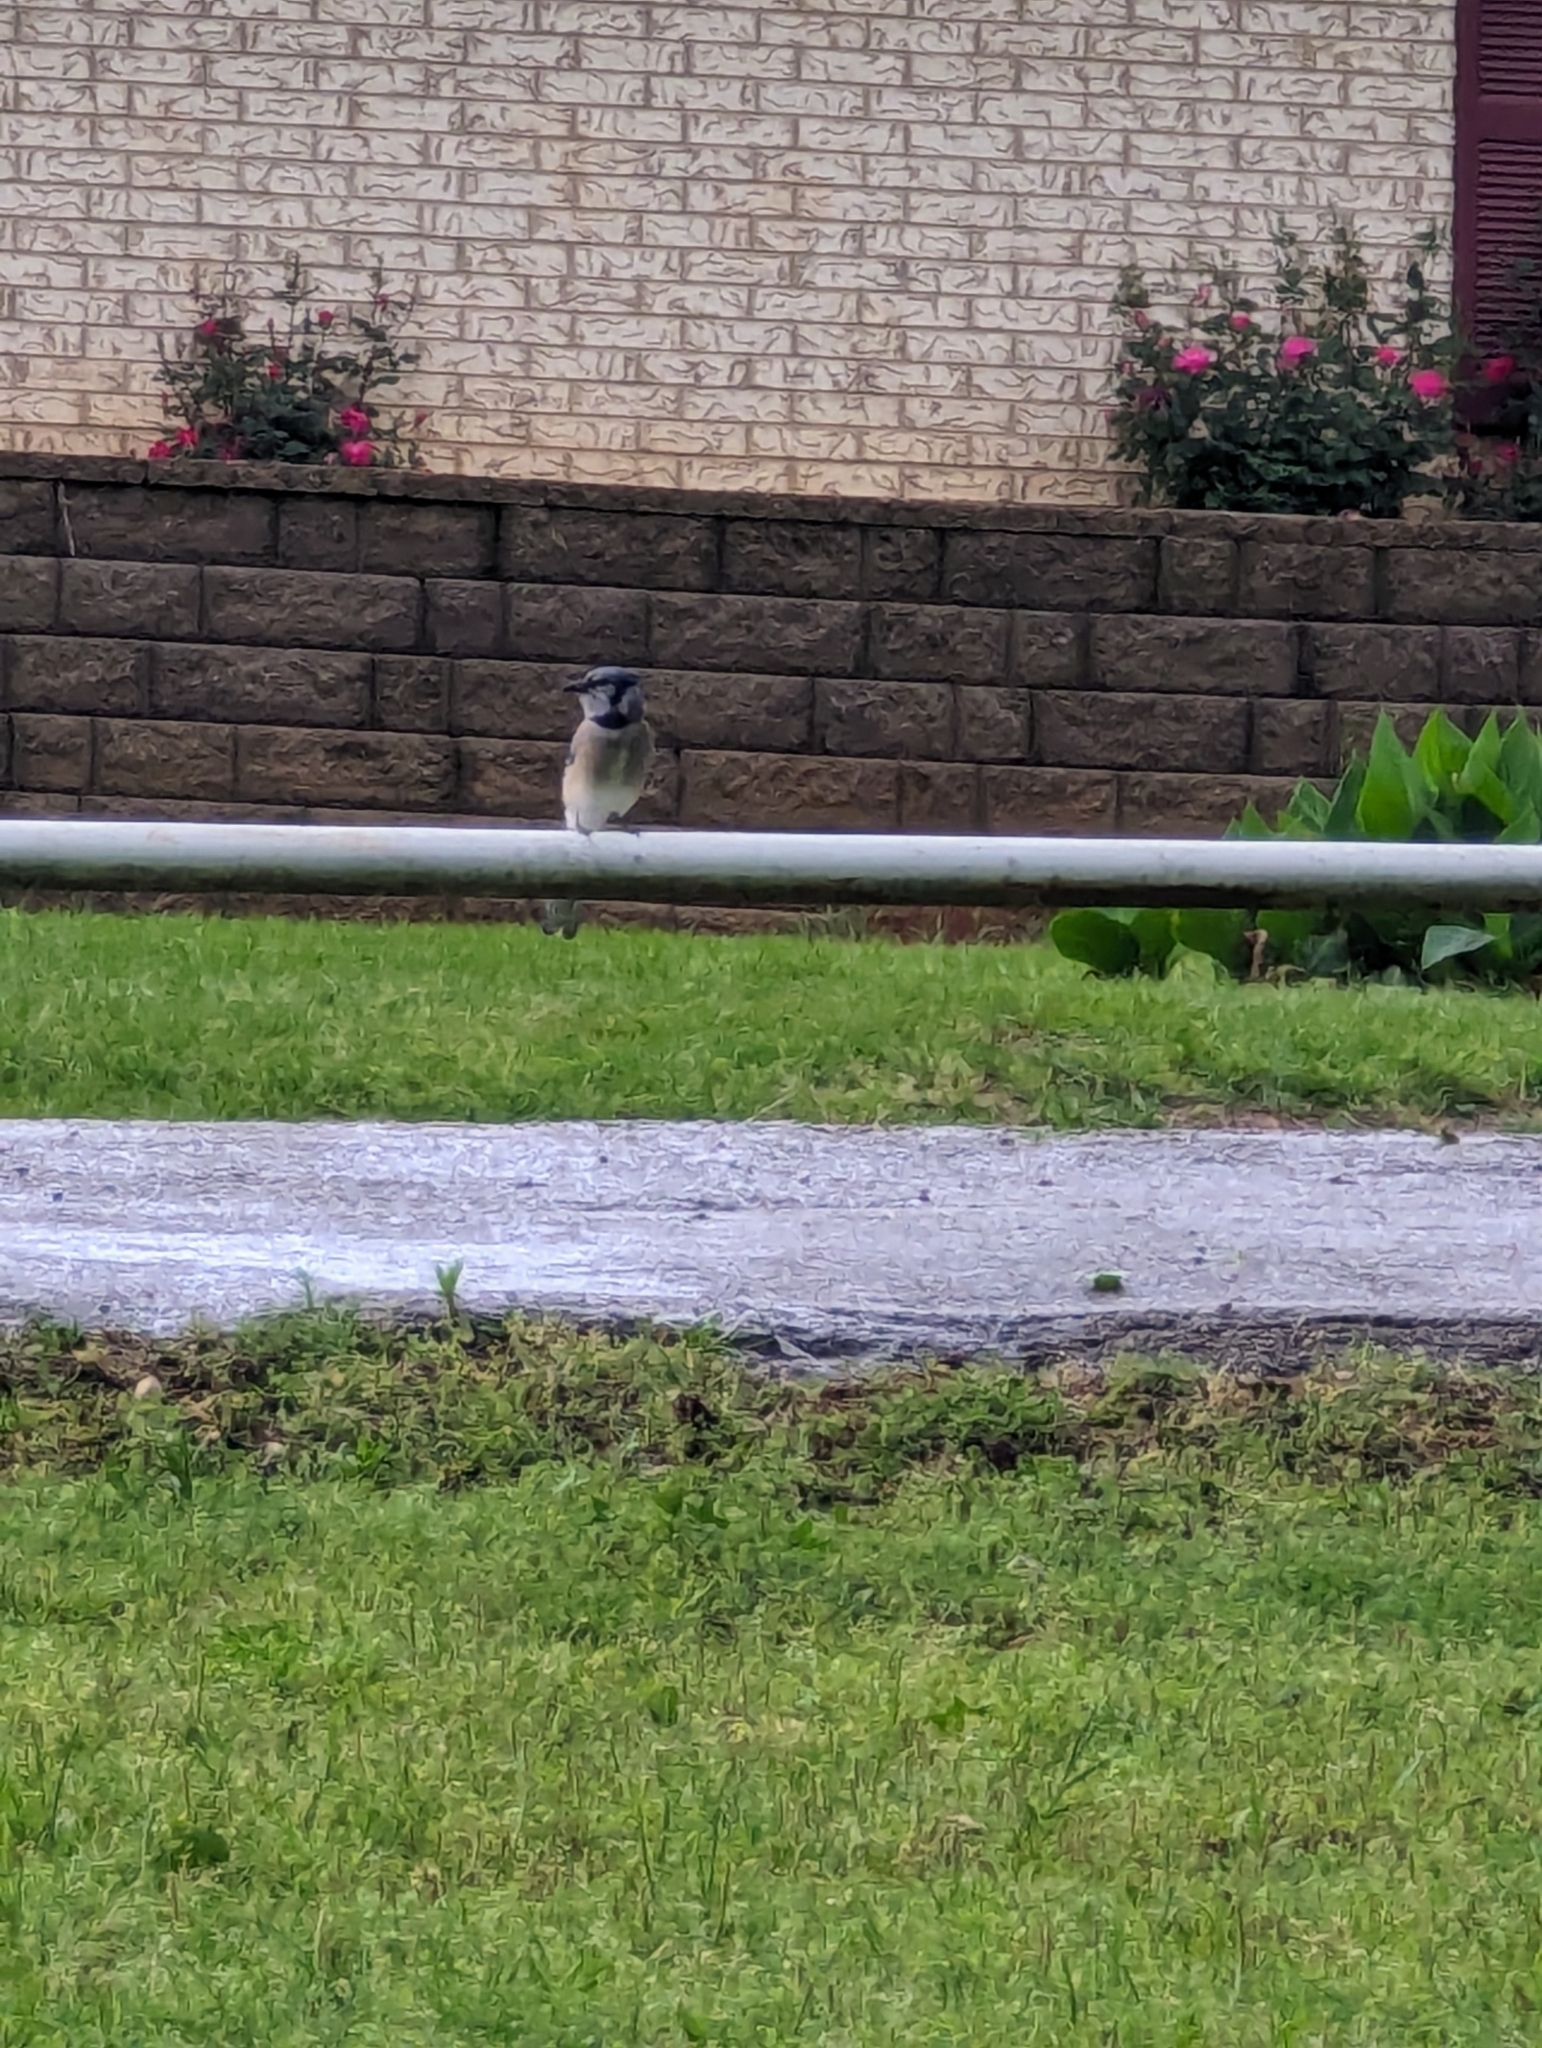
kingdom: Animalia
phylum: Chordata
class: Aves
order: Passeriformes
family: Corvidae
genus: Cyanocitta
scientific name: Cyanocitta cristata
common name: Blue jay
